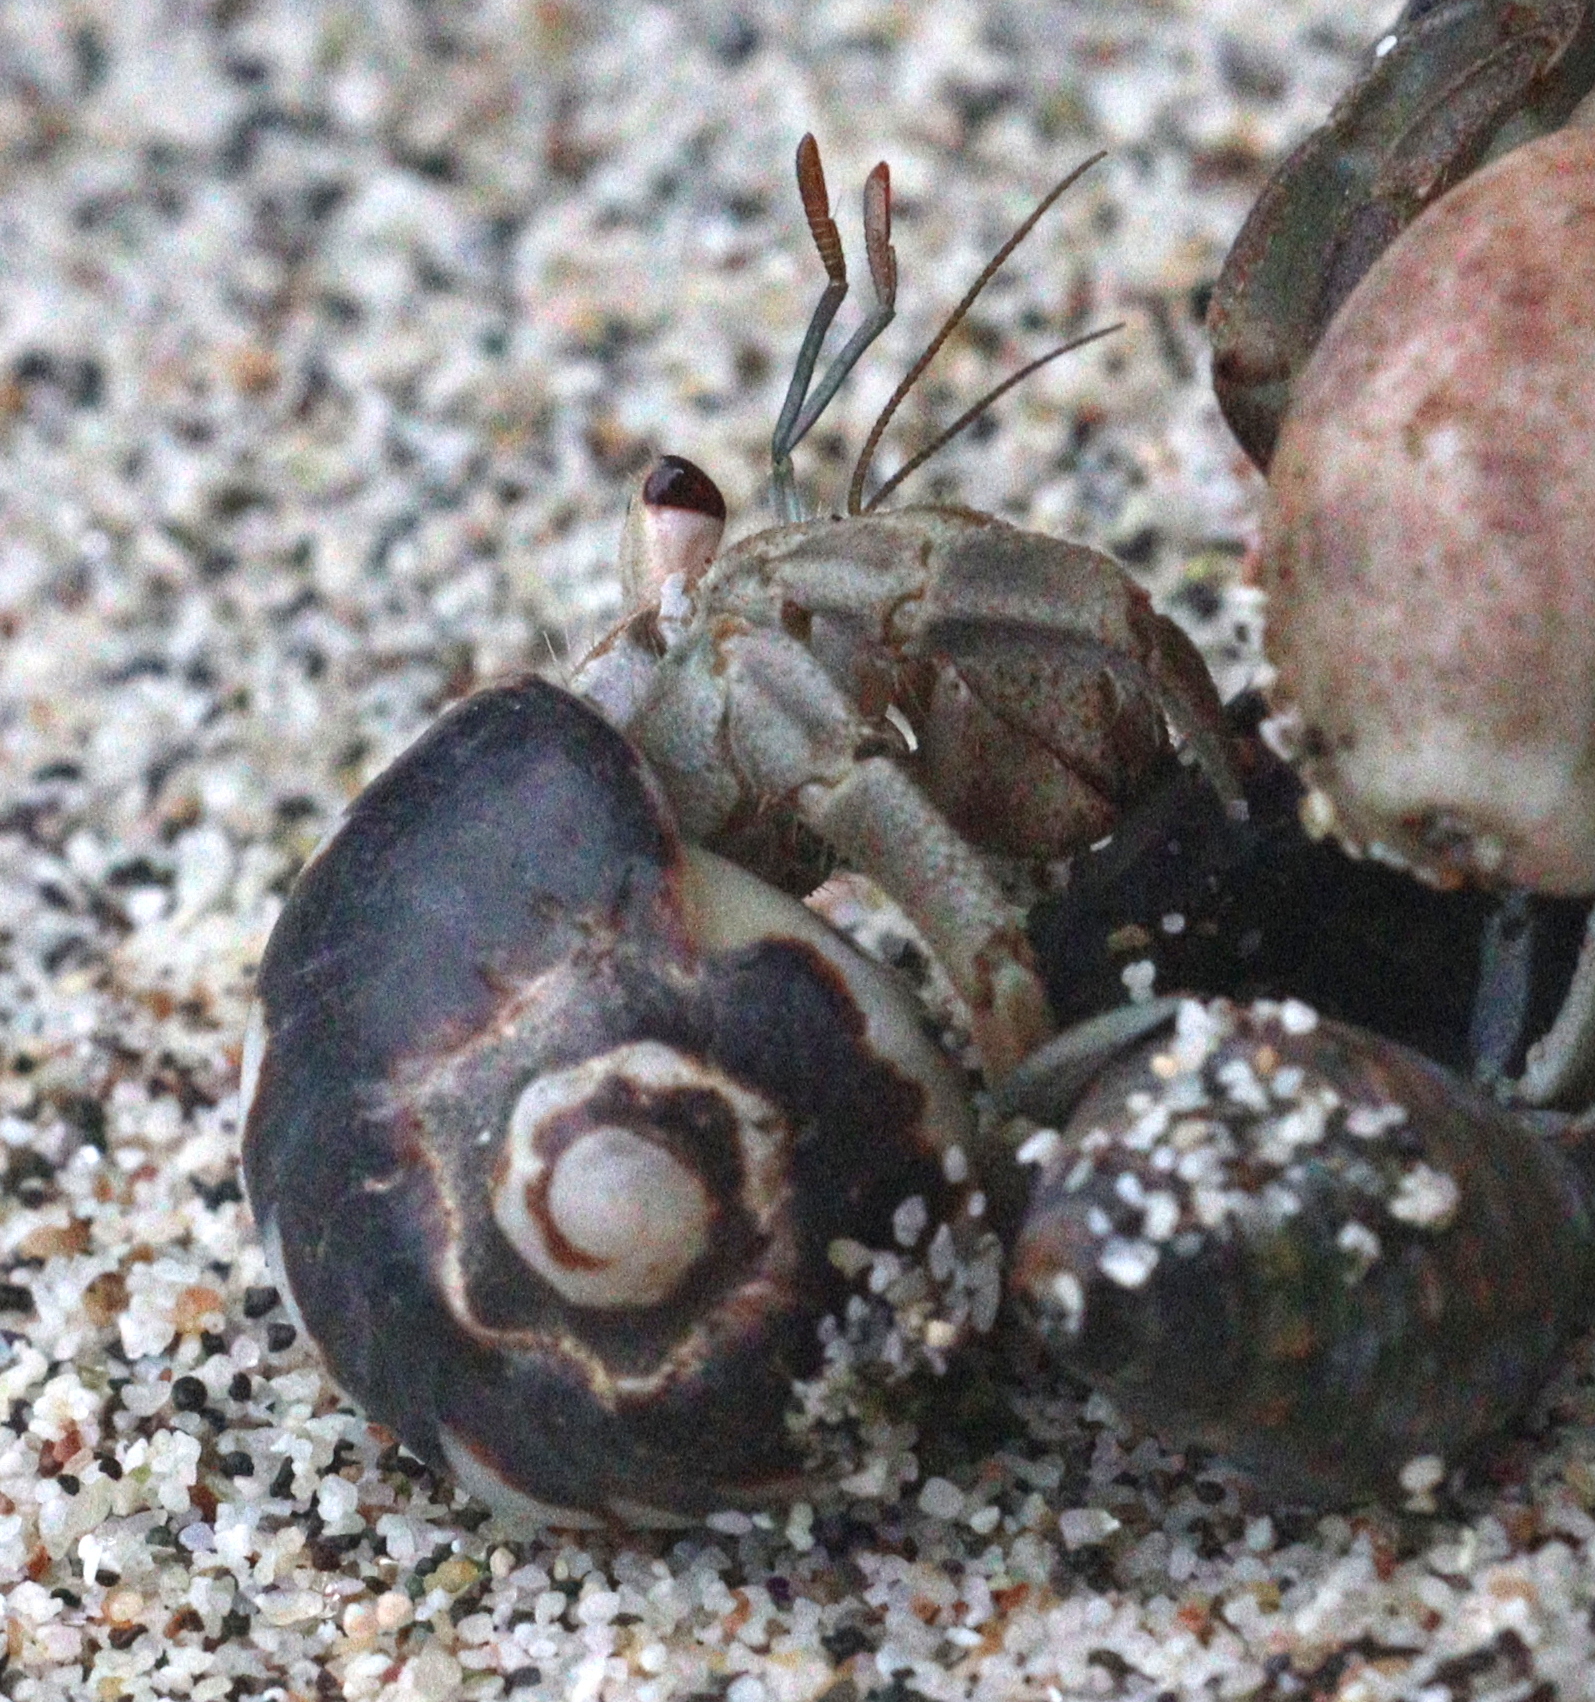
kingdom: Animalia
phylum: Arthropoda
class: Malacostraca
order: Decapoda
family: Coenobitidae
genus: Coenobita
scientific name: Coenobita compressus
